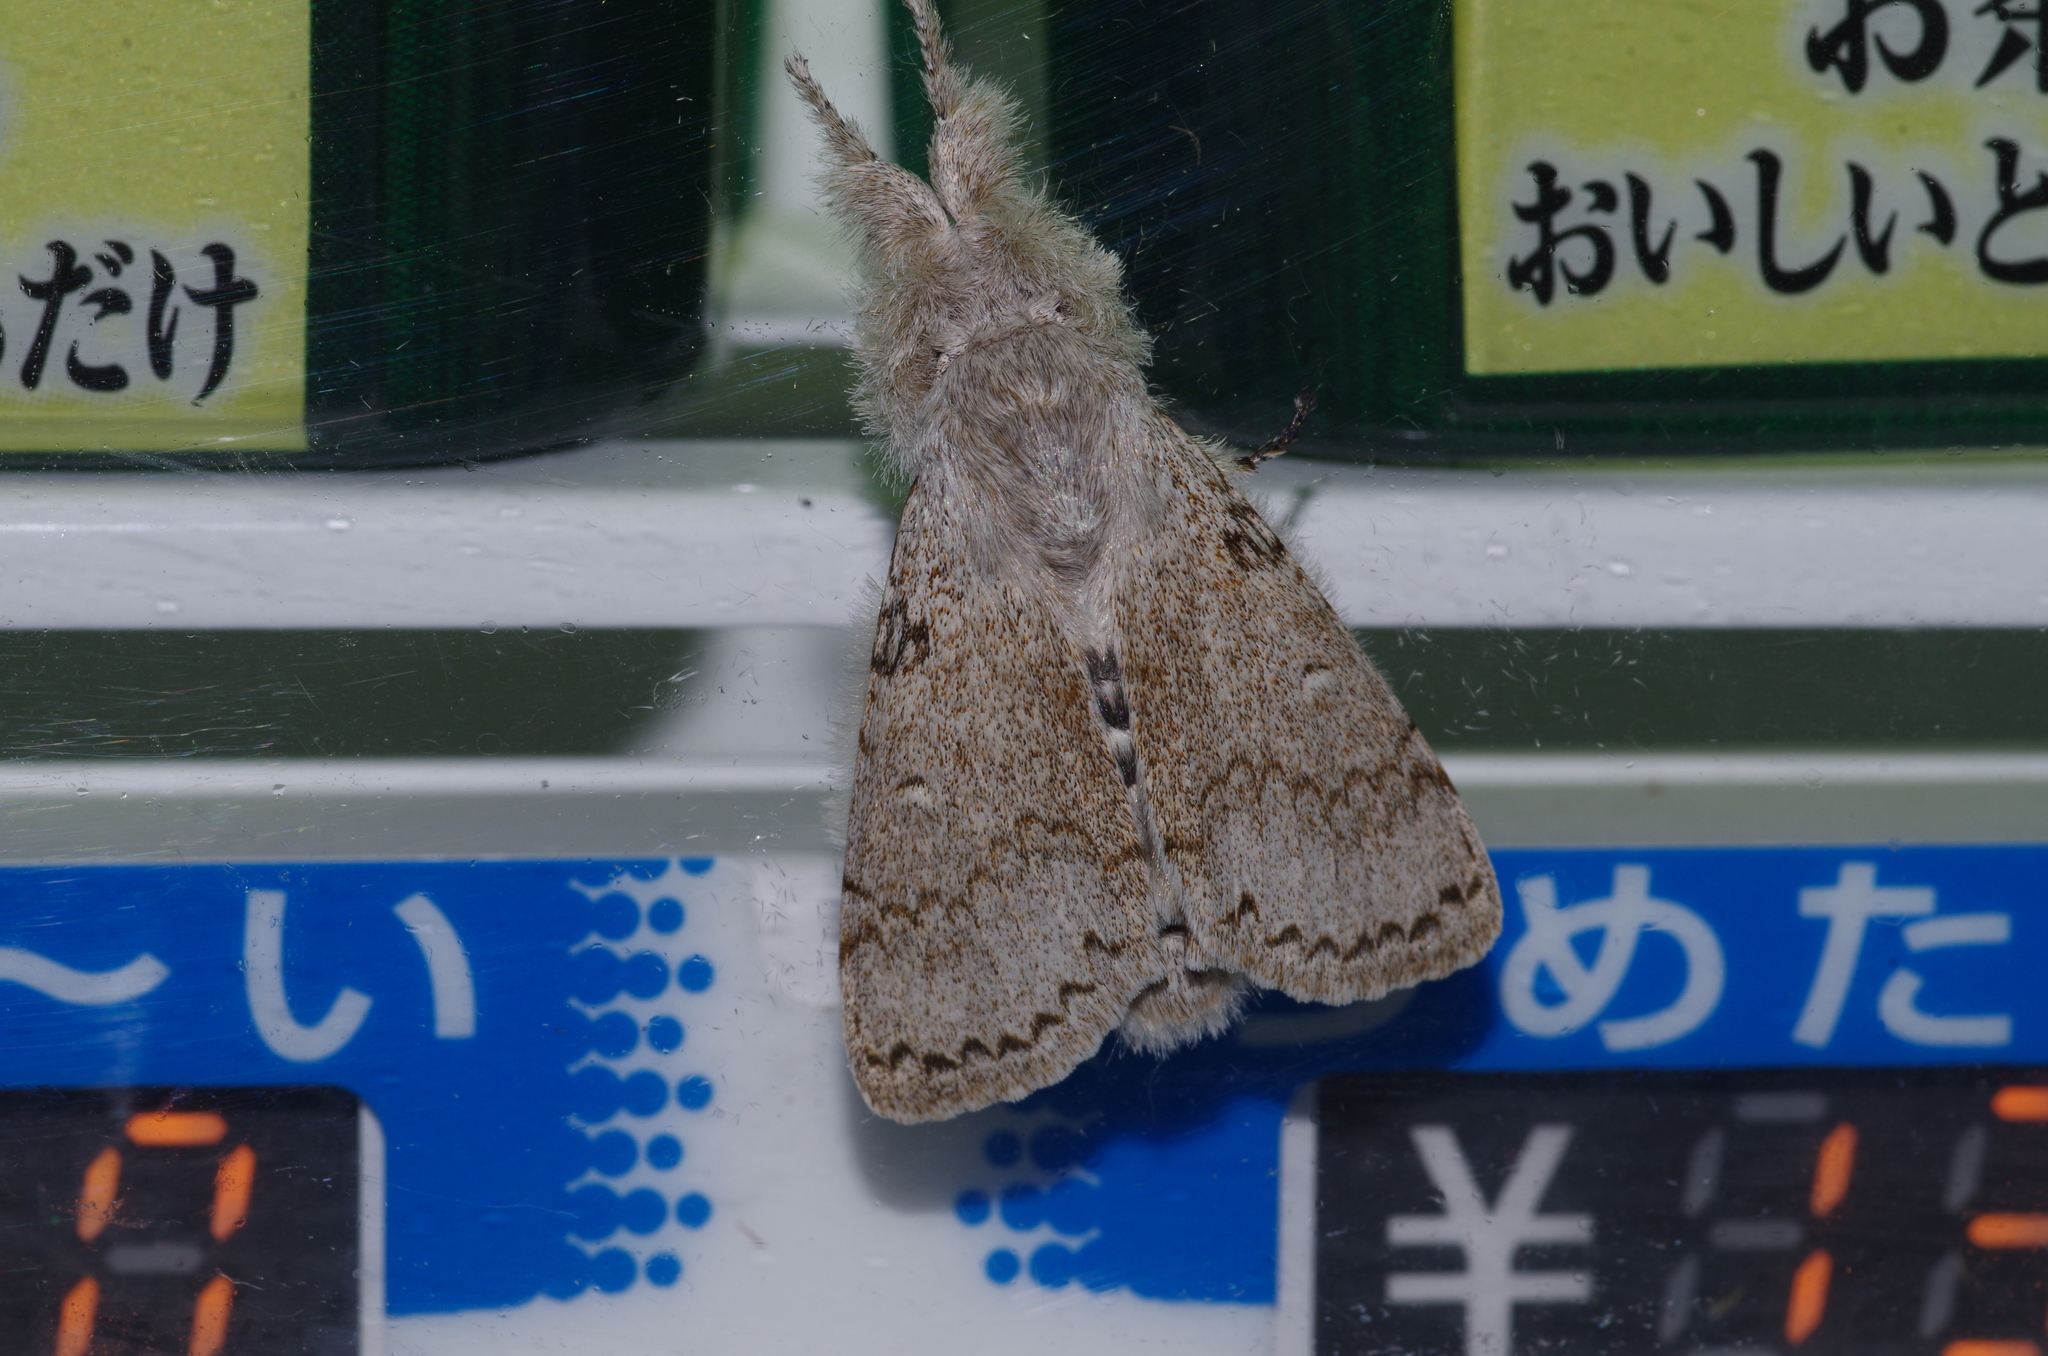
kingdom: Animalia
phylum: Arthropoda
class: Insecta
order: Lepidoptera
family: Erebidae
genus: Calliteara
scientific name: Calliteara lunulata
